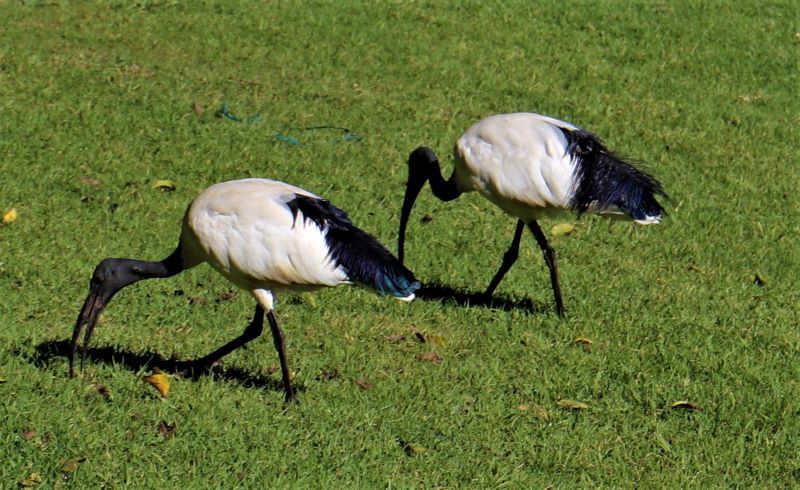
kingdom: Animalia
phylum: Chordata
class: Aves
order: Pelecaniformes
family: Threskiornithidae
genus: Threskiornis
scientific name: Threskiornis aethiopicus
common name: Sacred ibis
